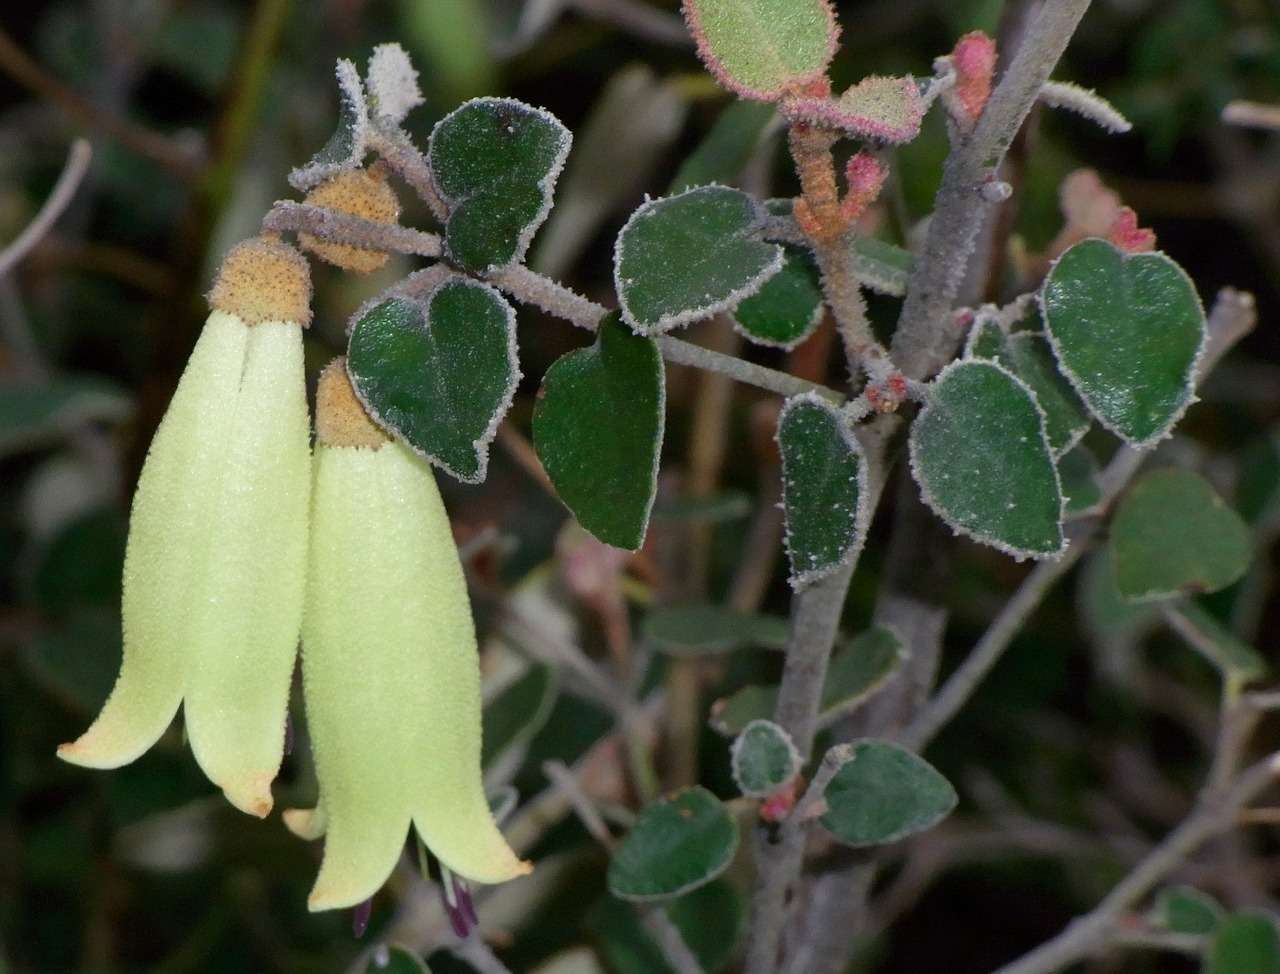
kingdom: Plantae
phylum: Tracheophyta
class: Magnoliopsida
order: Sapindales
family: Rutaceae
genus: Correa
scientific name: Correa reflexa
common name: Common correa
